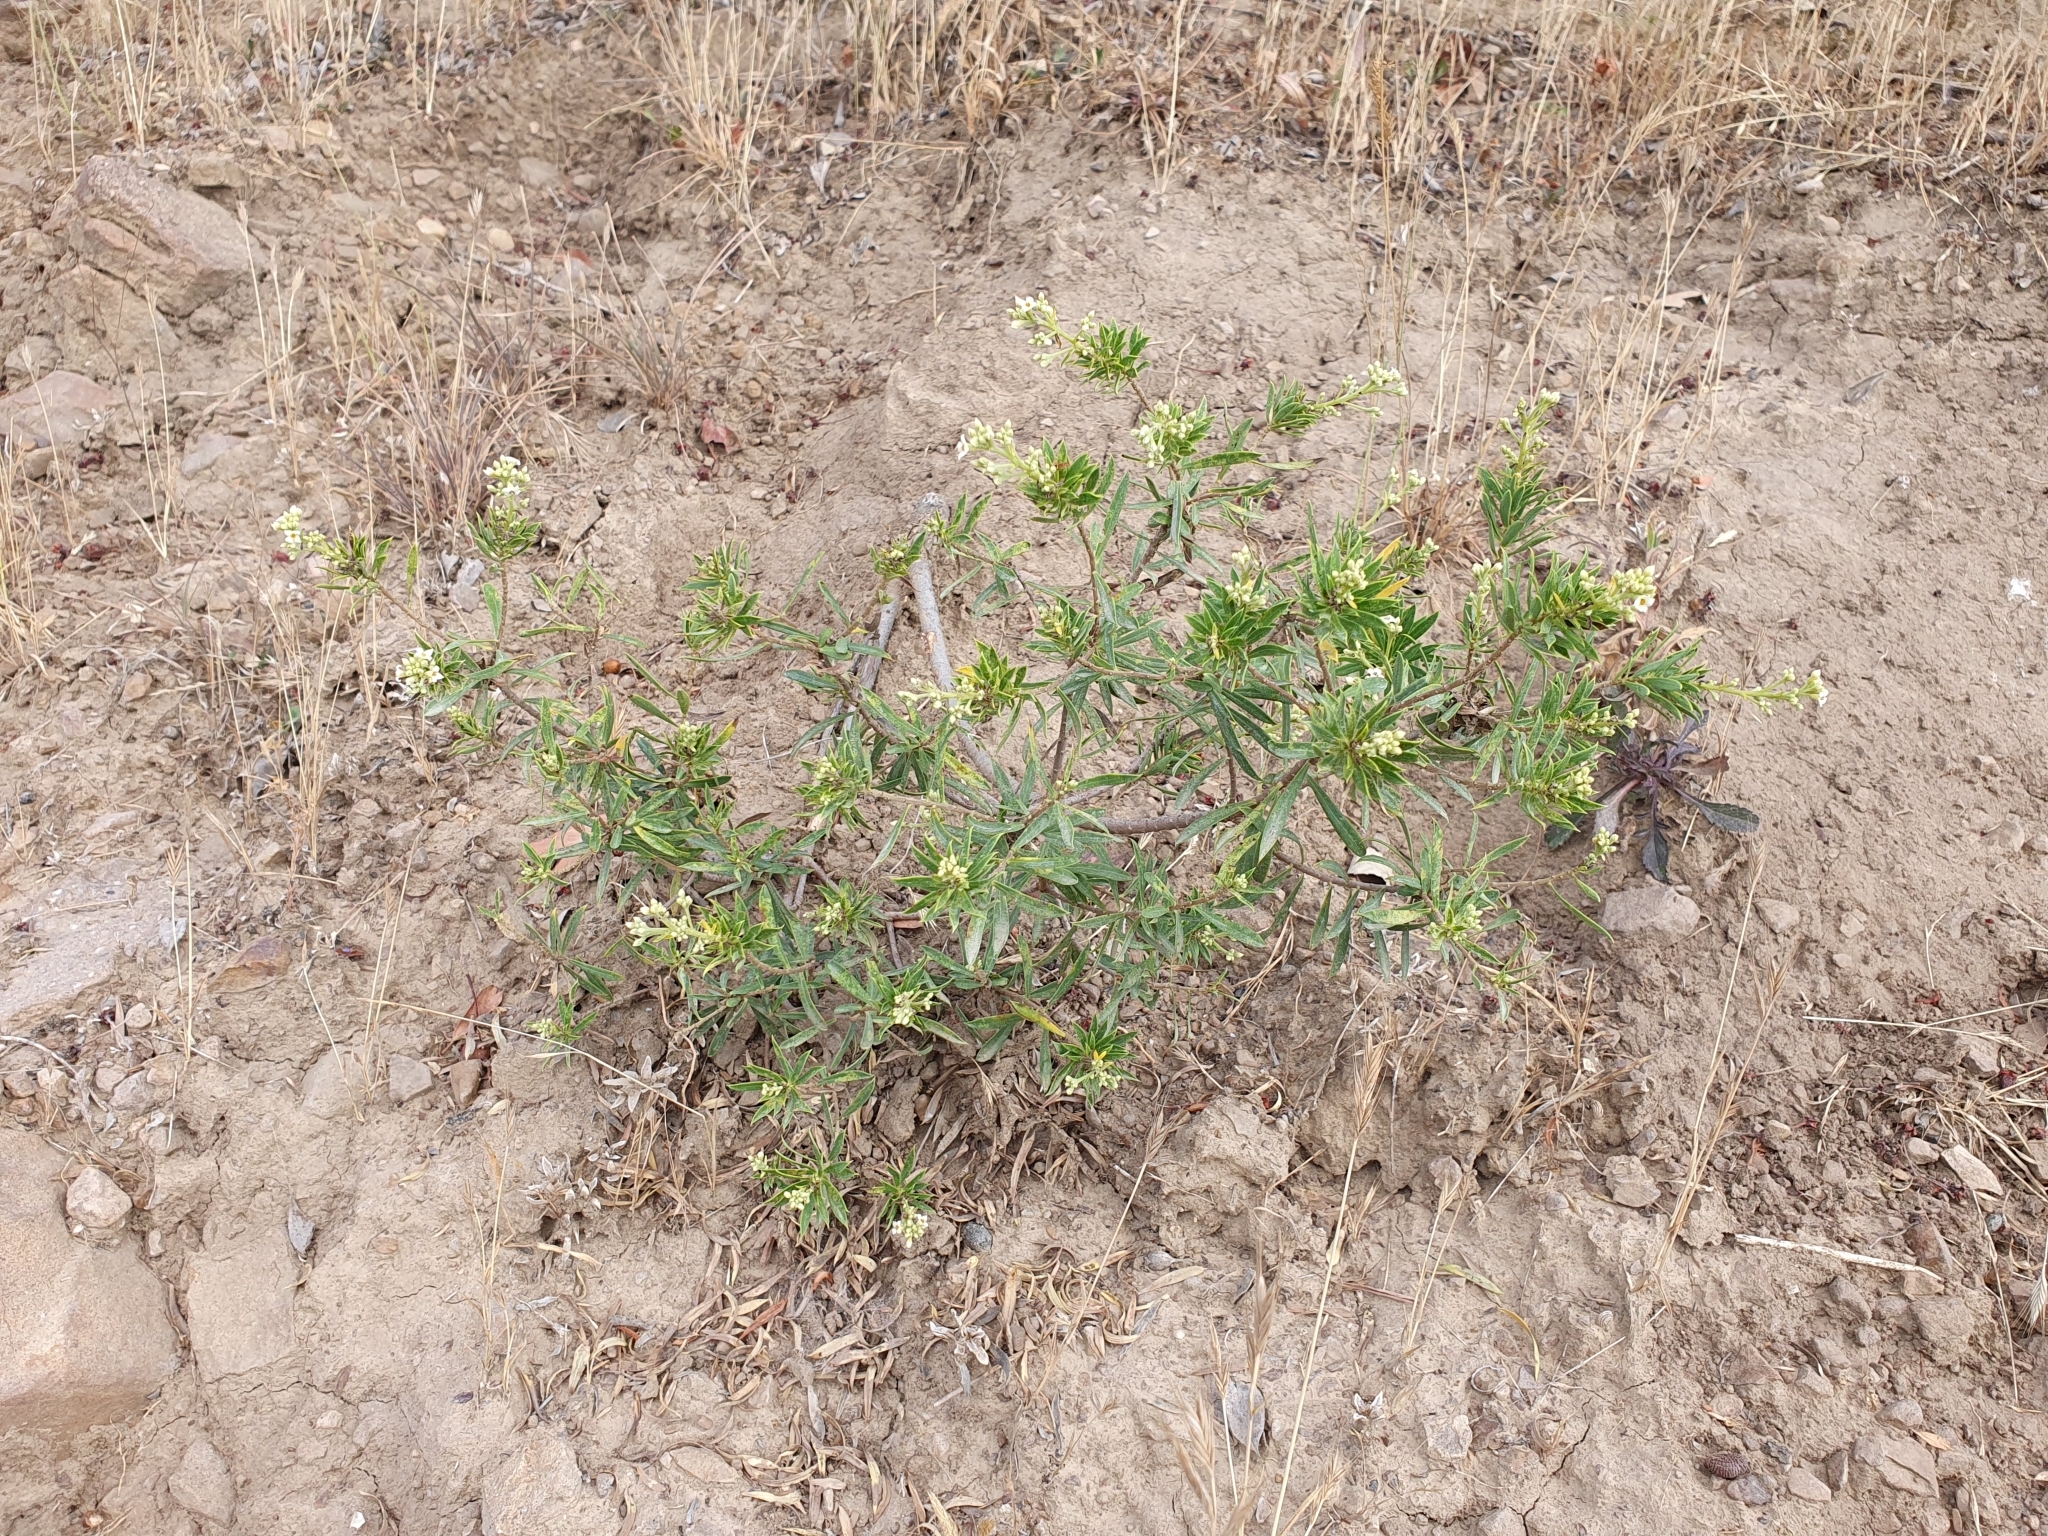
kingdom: Plantae
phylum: Tracheophyta
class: Magnoliopsida
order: Malvales
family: Thymelaeaceae
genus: Daphne
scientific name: Daphne gnidium
